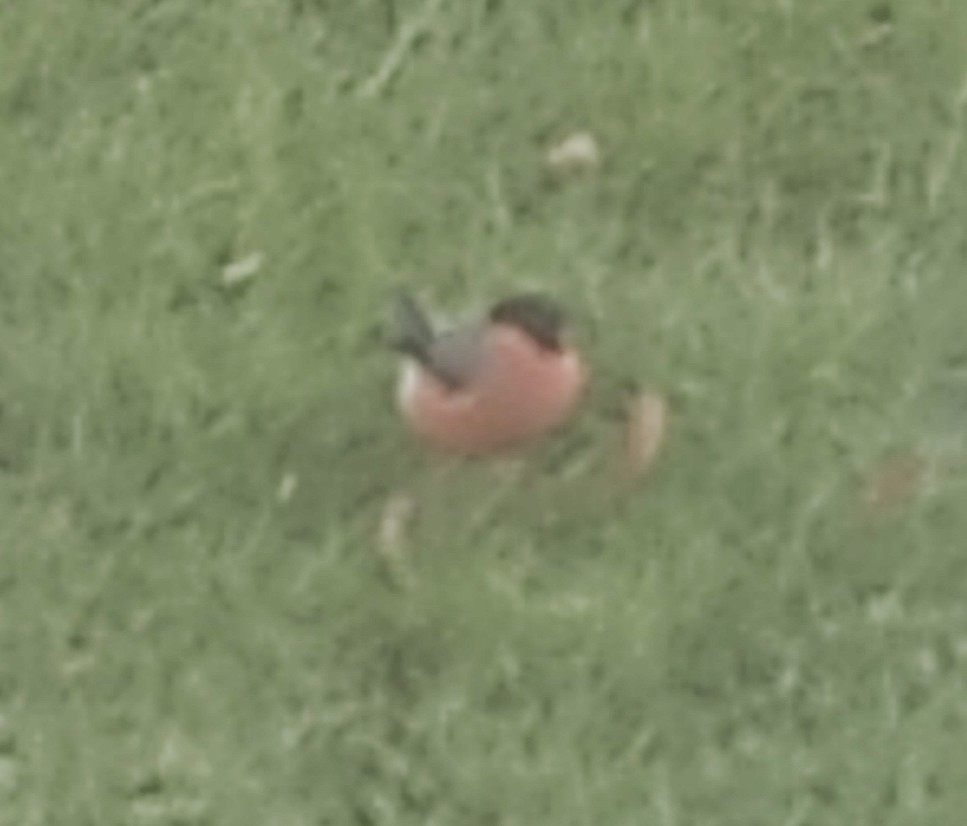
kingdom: Animalia
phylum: Chordata
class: Aves
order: Passeriformes
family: Fringillidae
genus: Pyrrhula
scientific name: Pyrrhula pyrrhula
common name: Eurasian bullfinch
